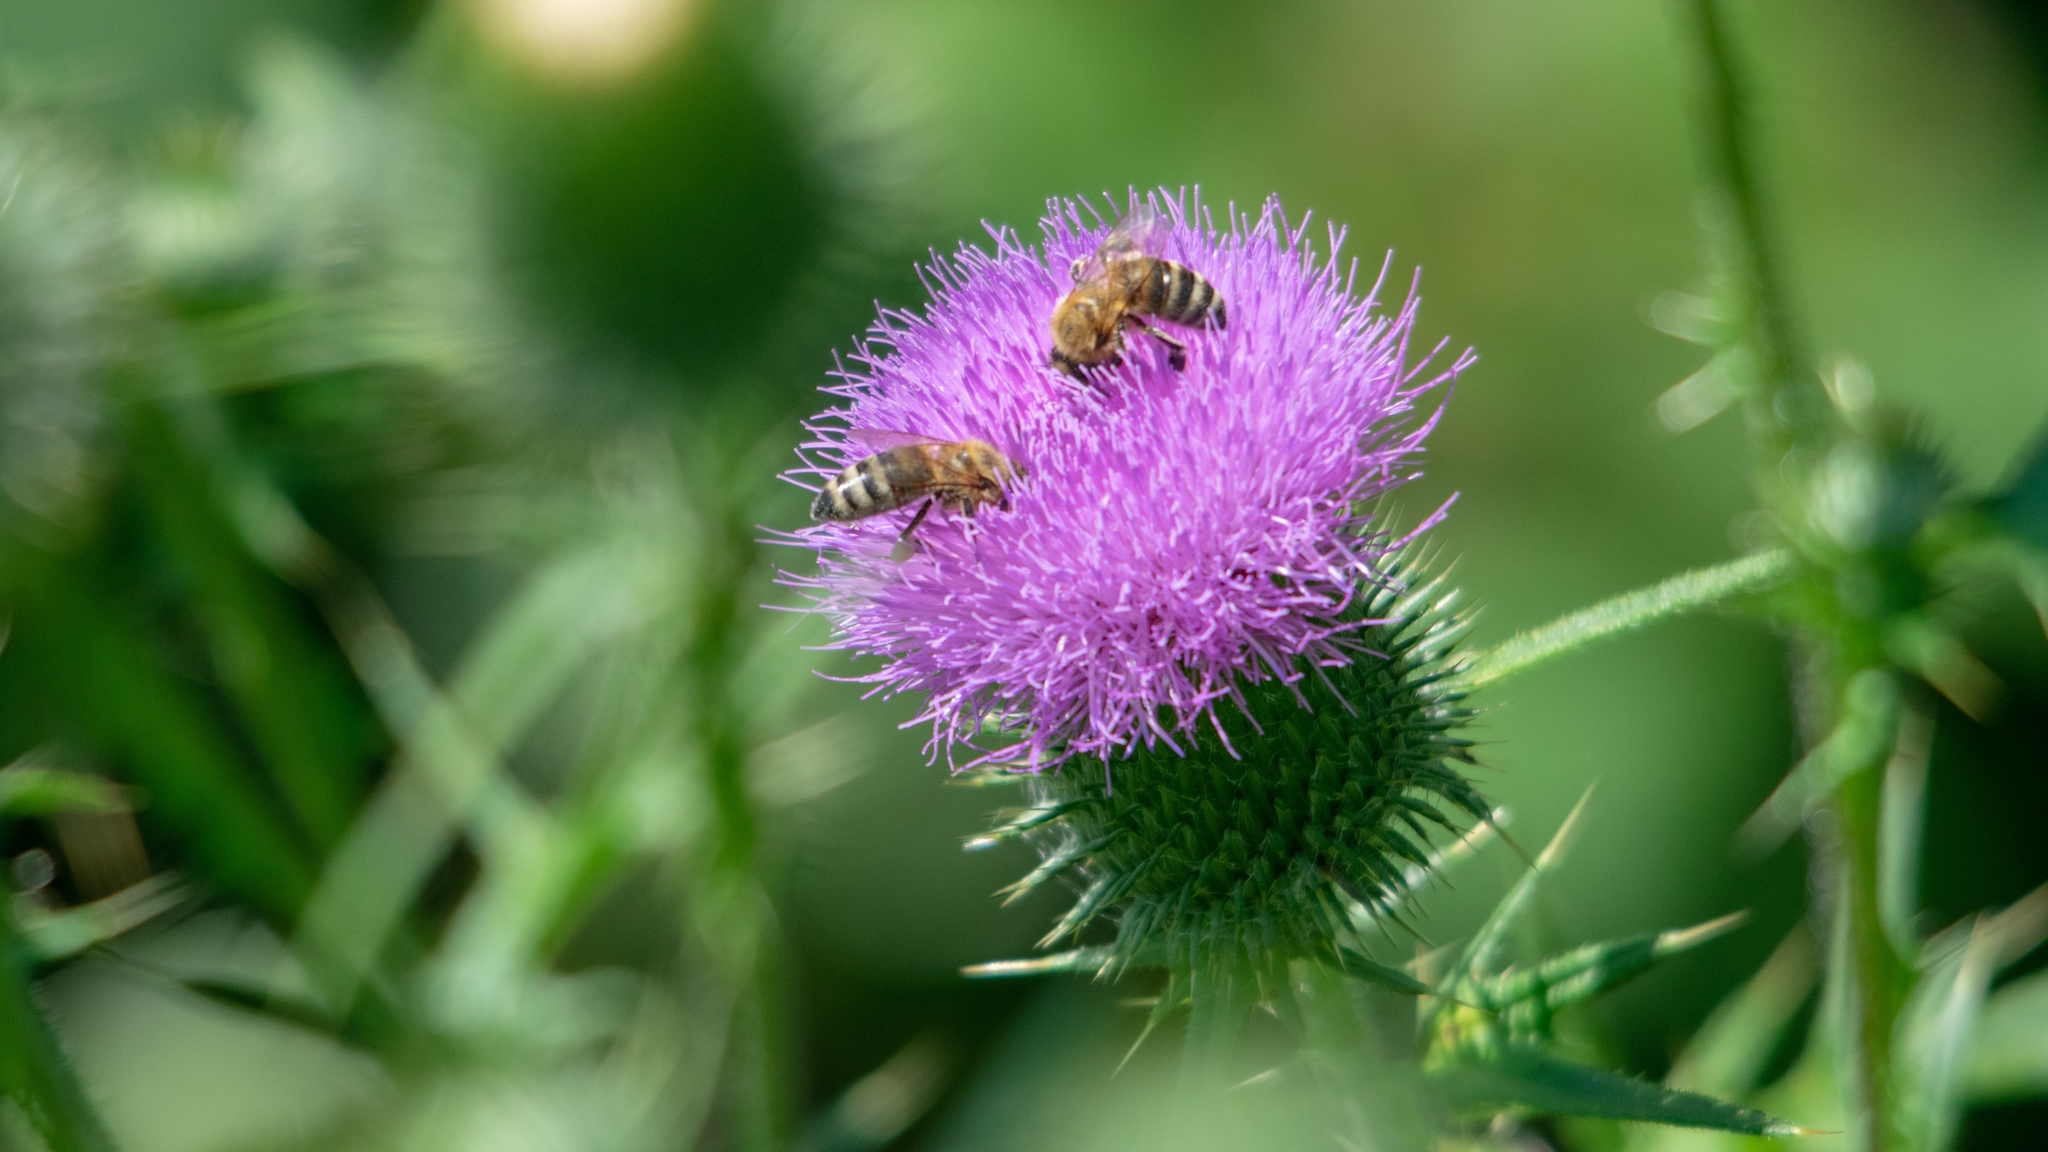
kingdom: Animalia
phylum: Arthropoda
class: Insecta
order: Hymenoptera
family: Apidae
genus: Apis
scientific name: Apis mellifera
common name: Honey bee
